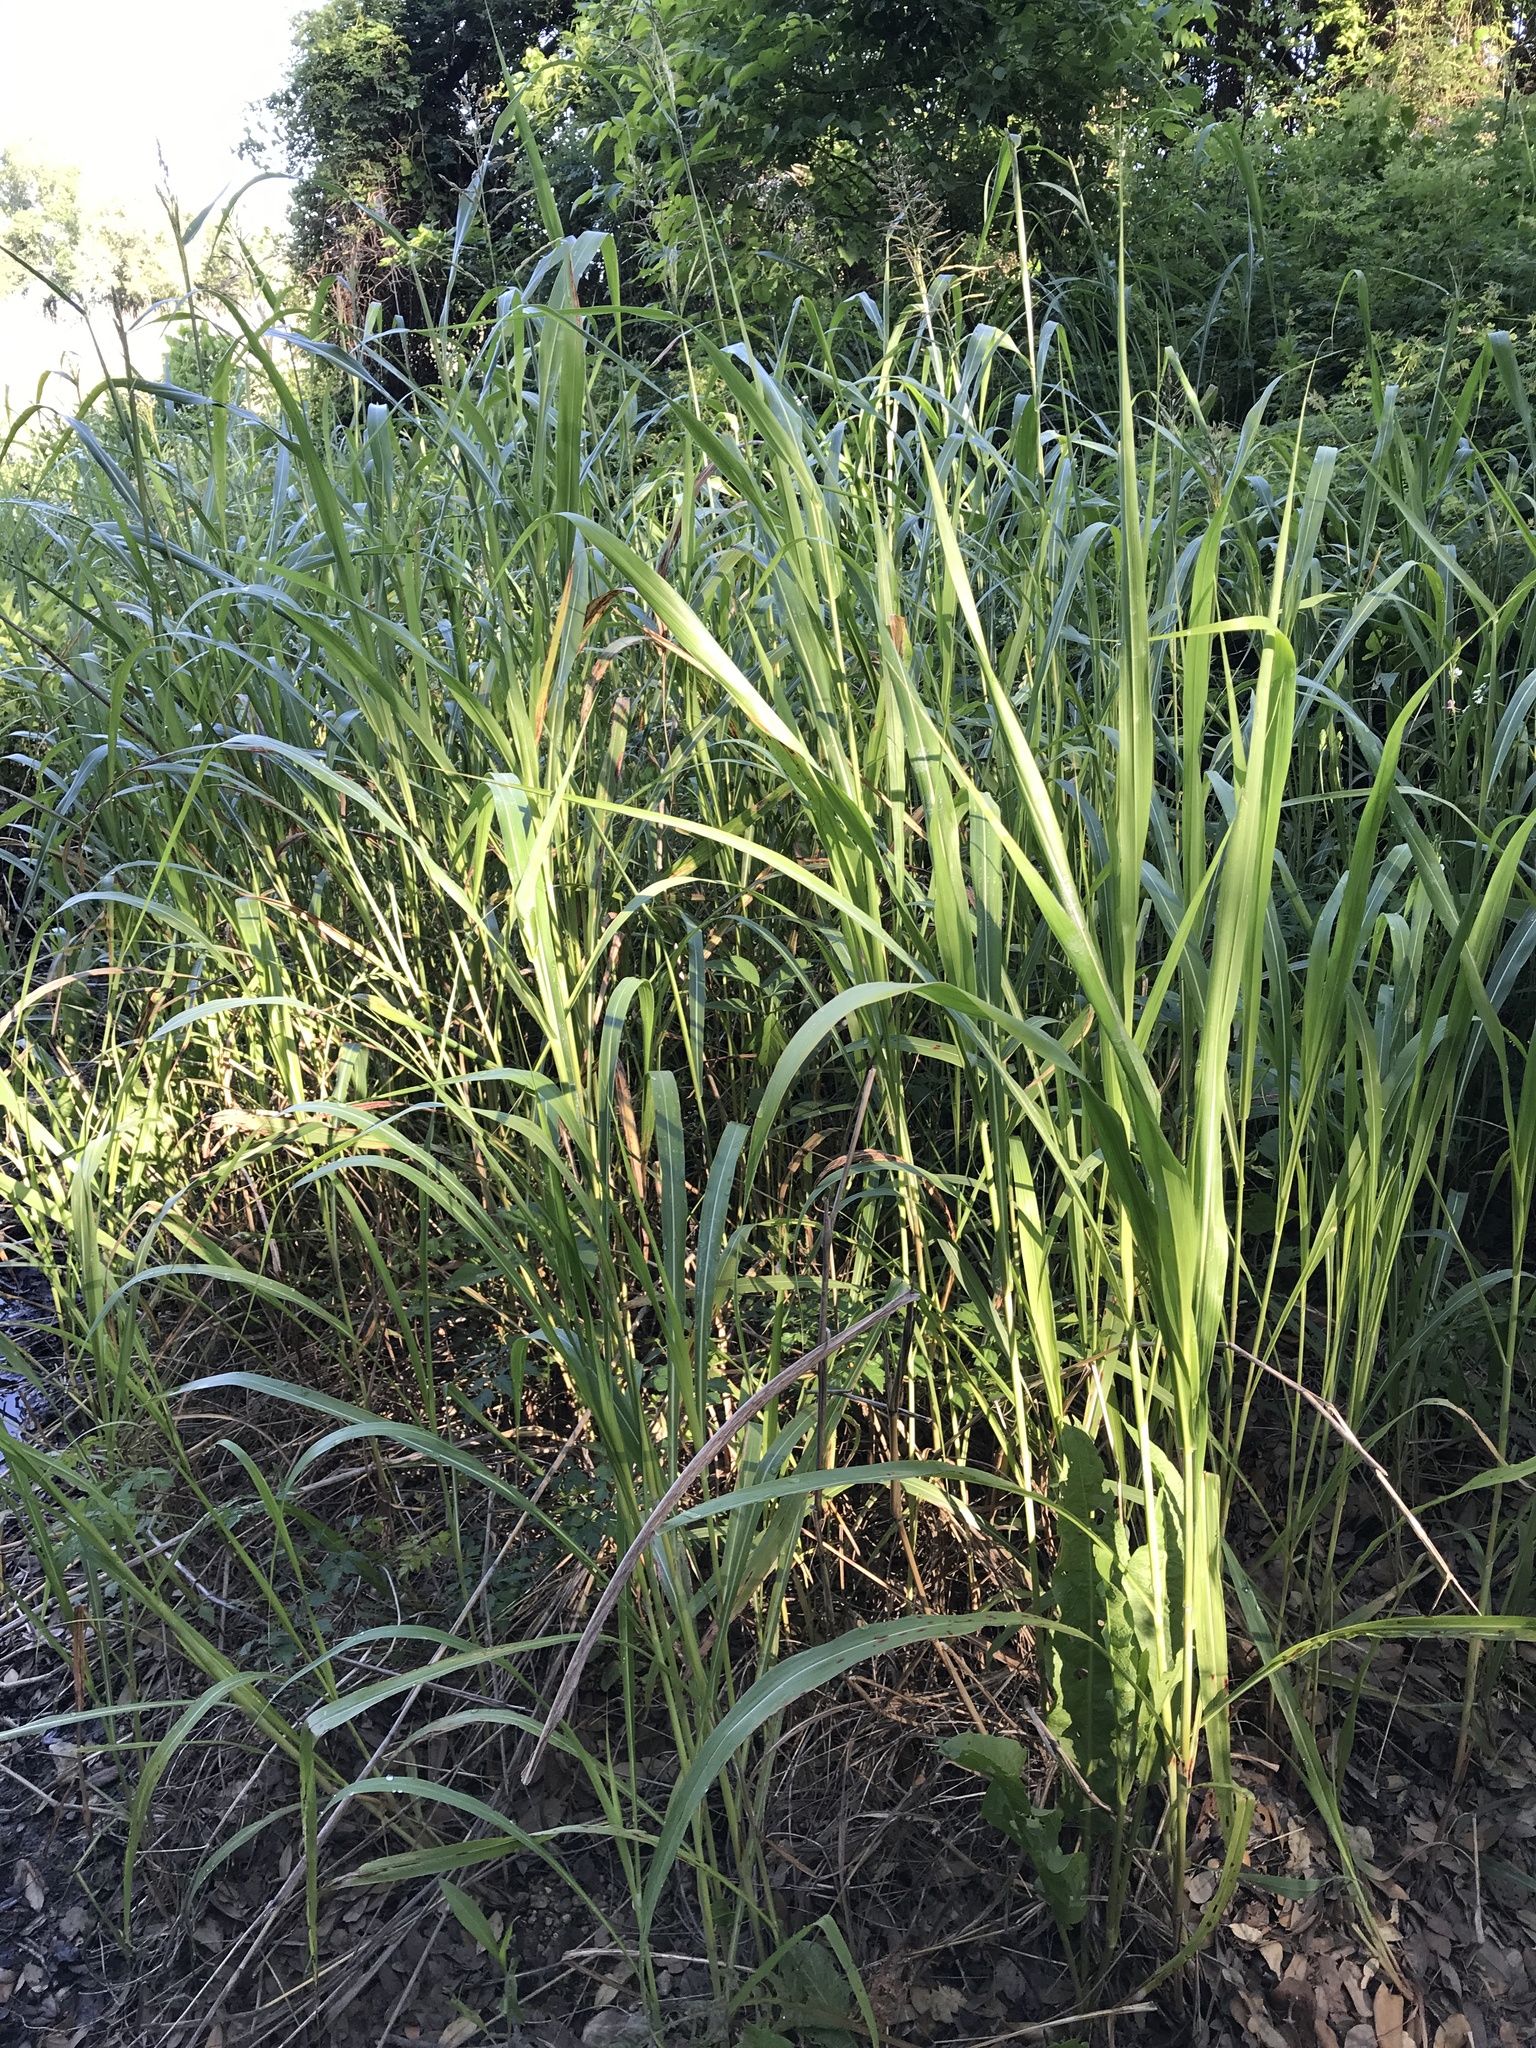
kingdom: Plantae
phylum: Tracheophyta
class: Liliopsida
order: Poales
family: Poaceae
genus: Sorghum
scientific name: Sorghum halepense
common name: Johnson-grass
